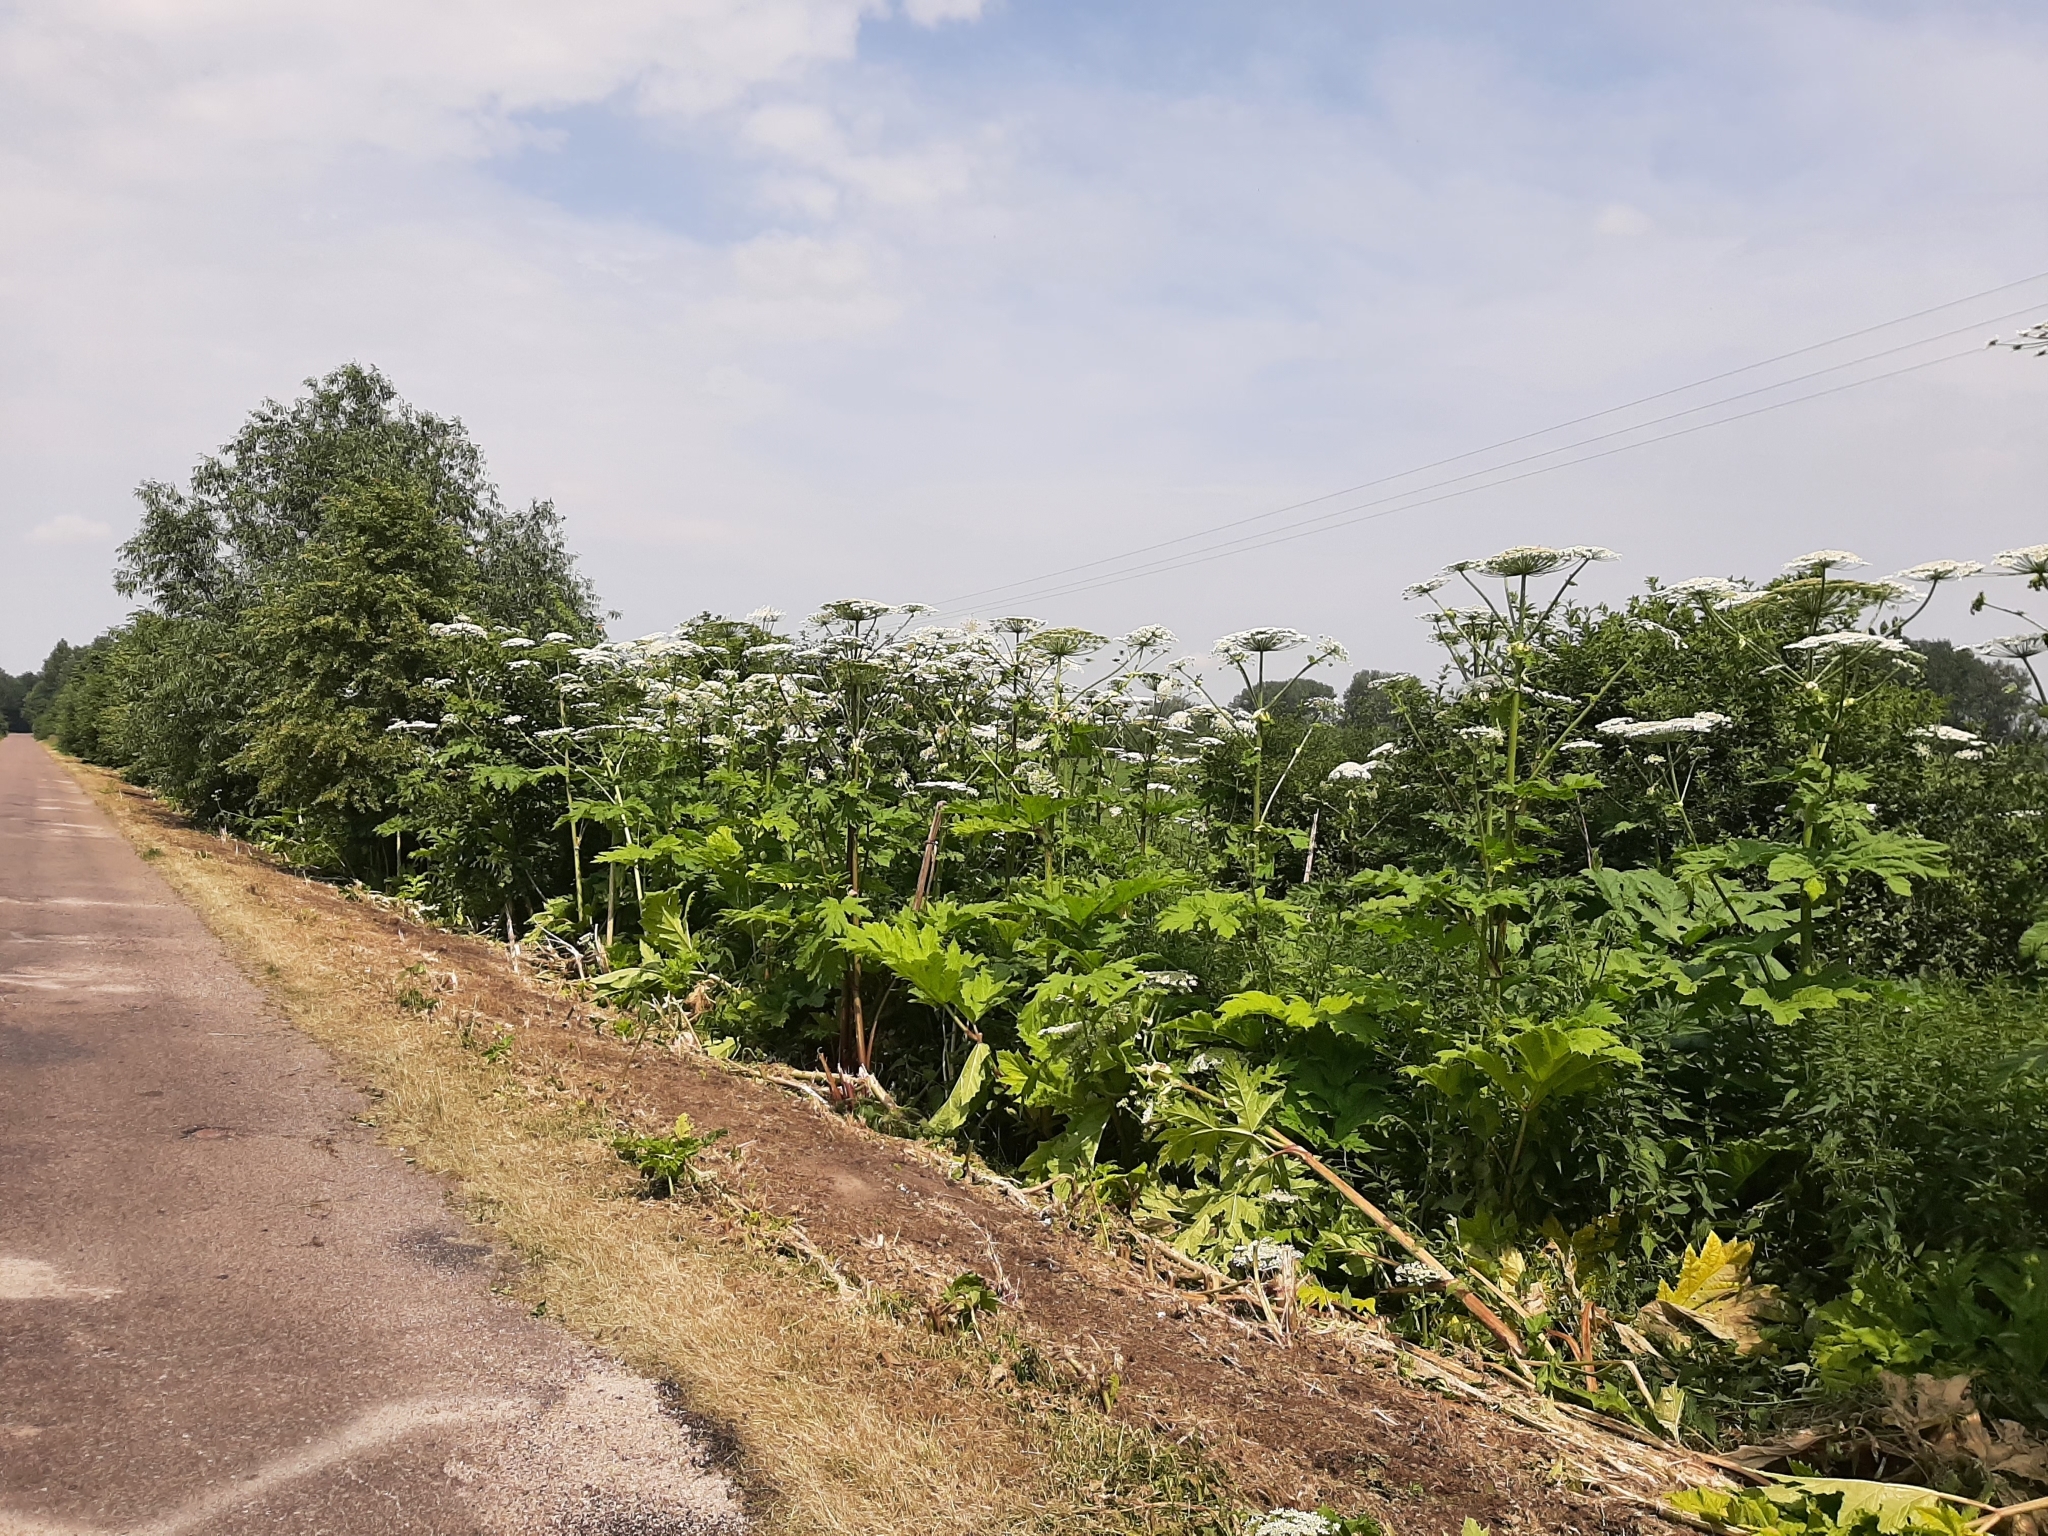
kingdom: Plantae
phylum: Tracheophyta
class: Magnoliopsida
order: Apiales
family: Apiaceae
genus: Heracleum
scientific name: Heracleum sosnowskyi
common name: Sosnowsky's hogweed
